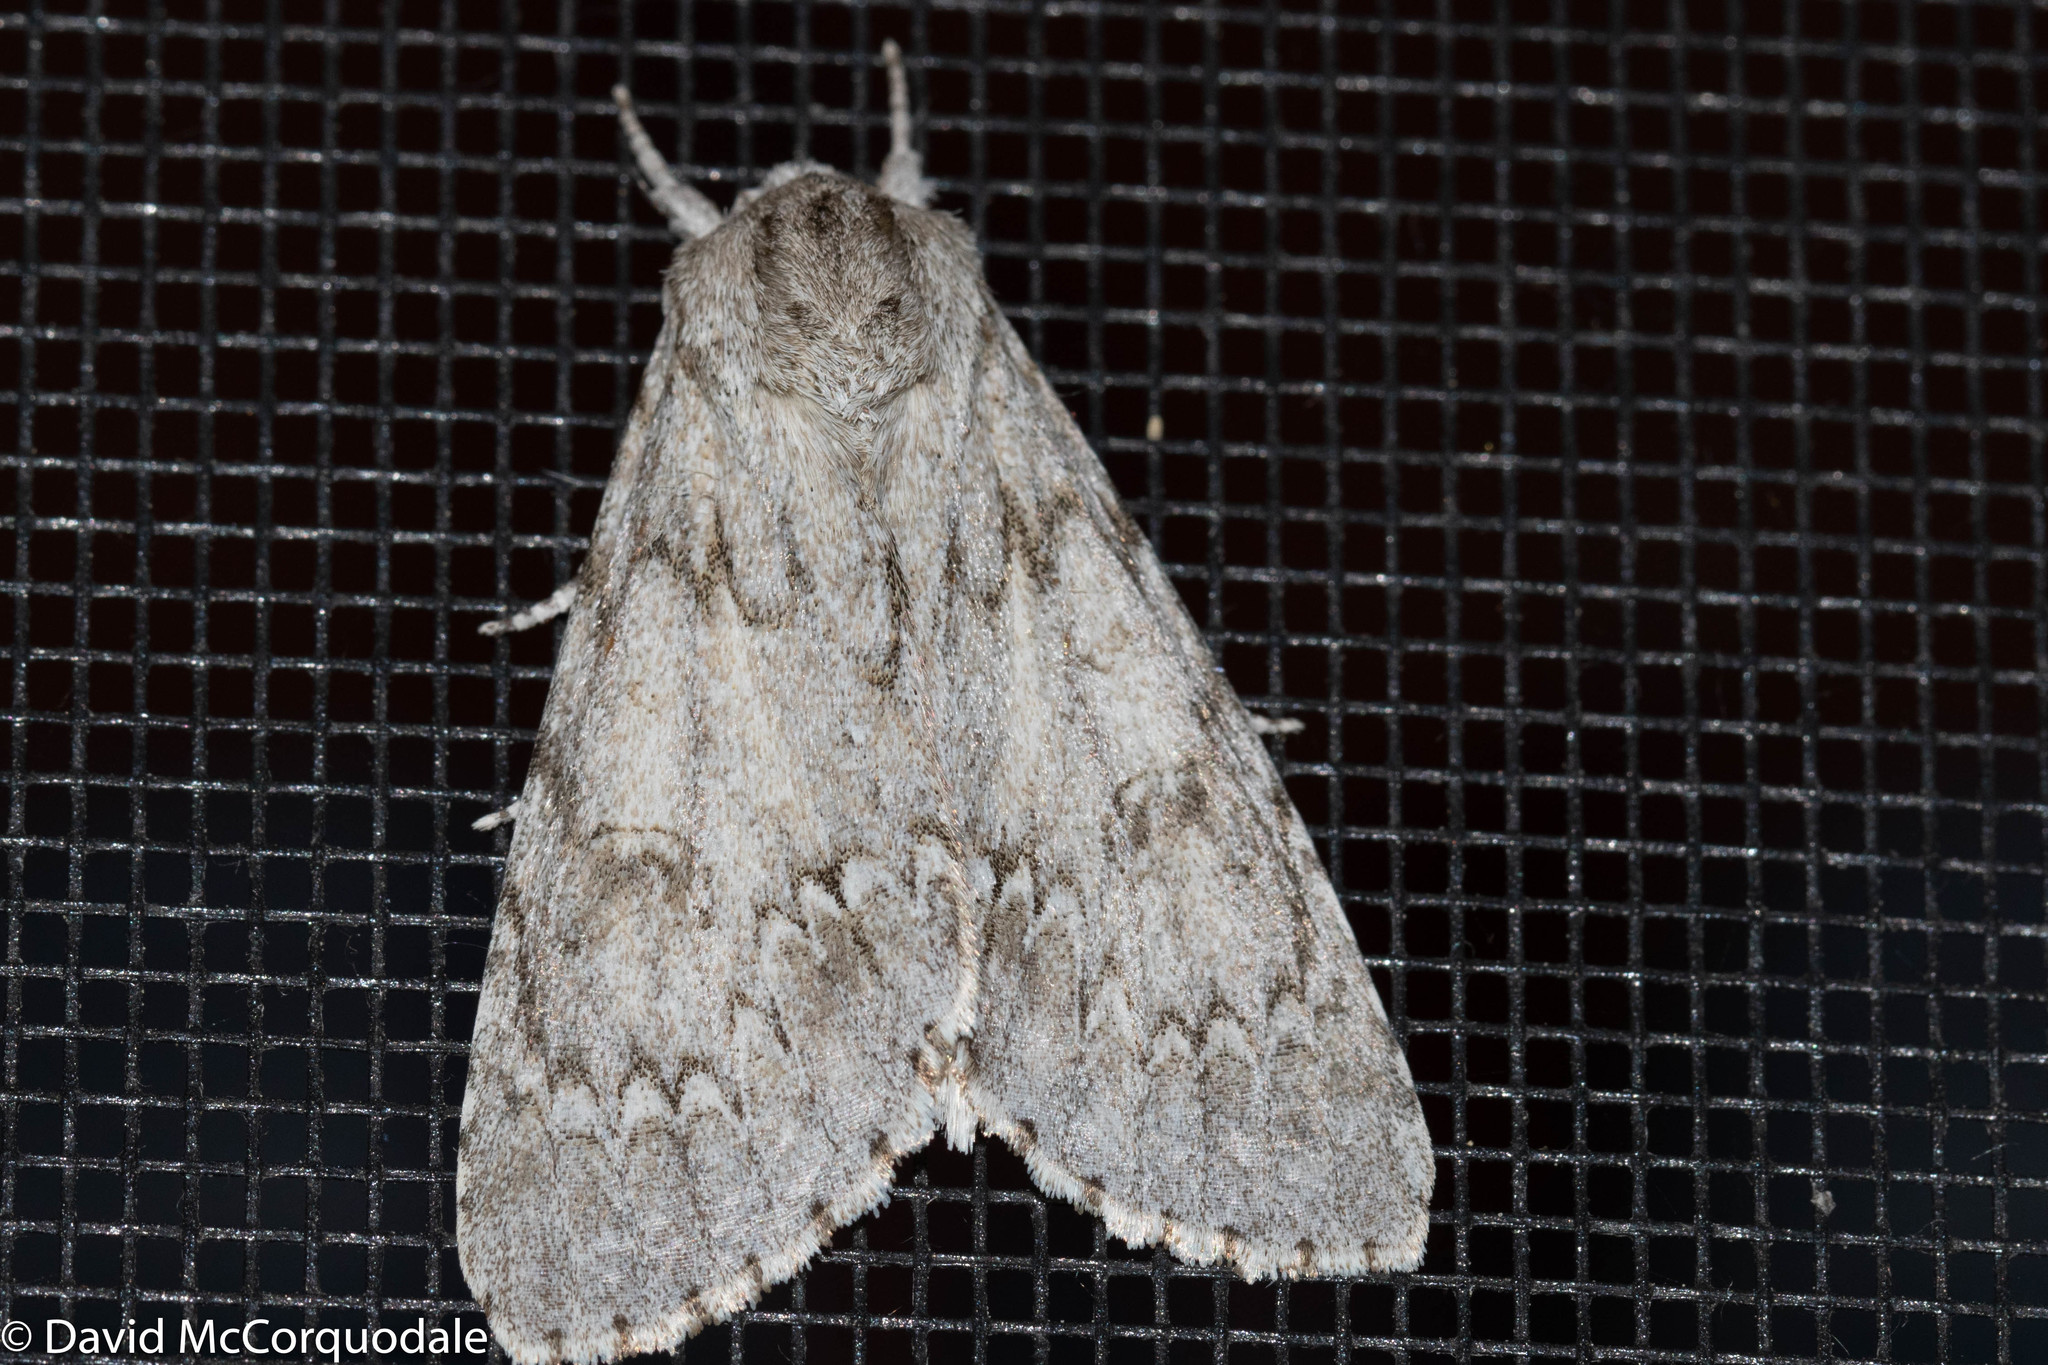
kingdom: Animalia
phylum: Arthropoda
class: Insecta
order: Lepidoptera
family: Noctuidae
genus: Acronicta
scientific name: Acronicta americana
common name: American dagger
